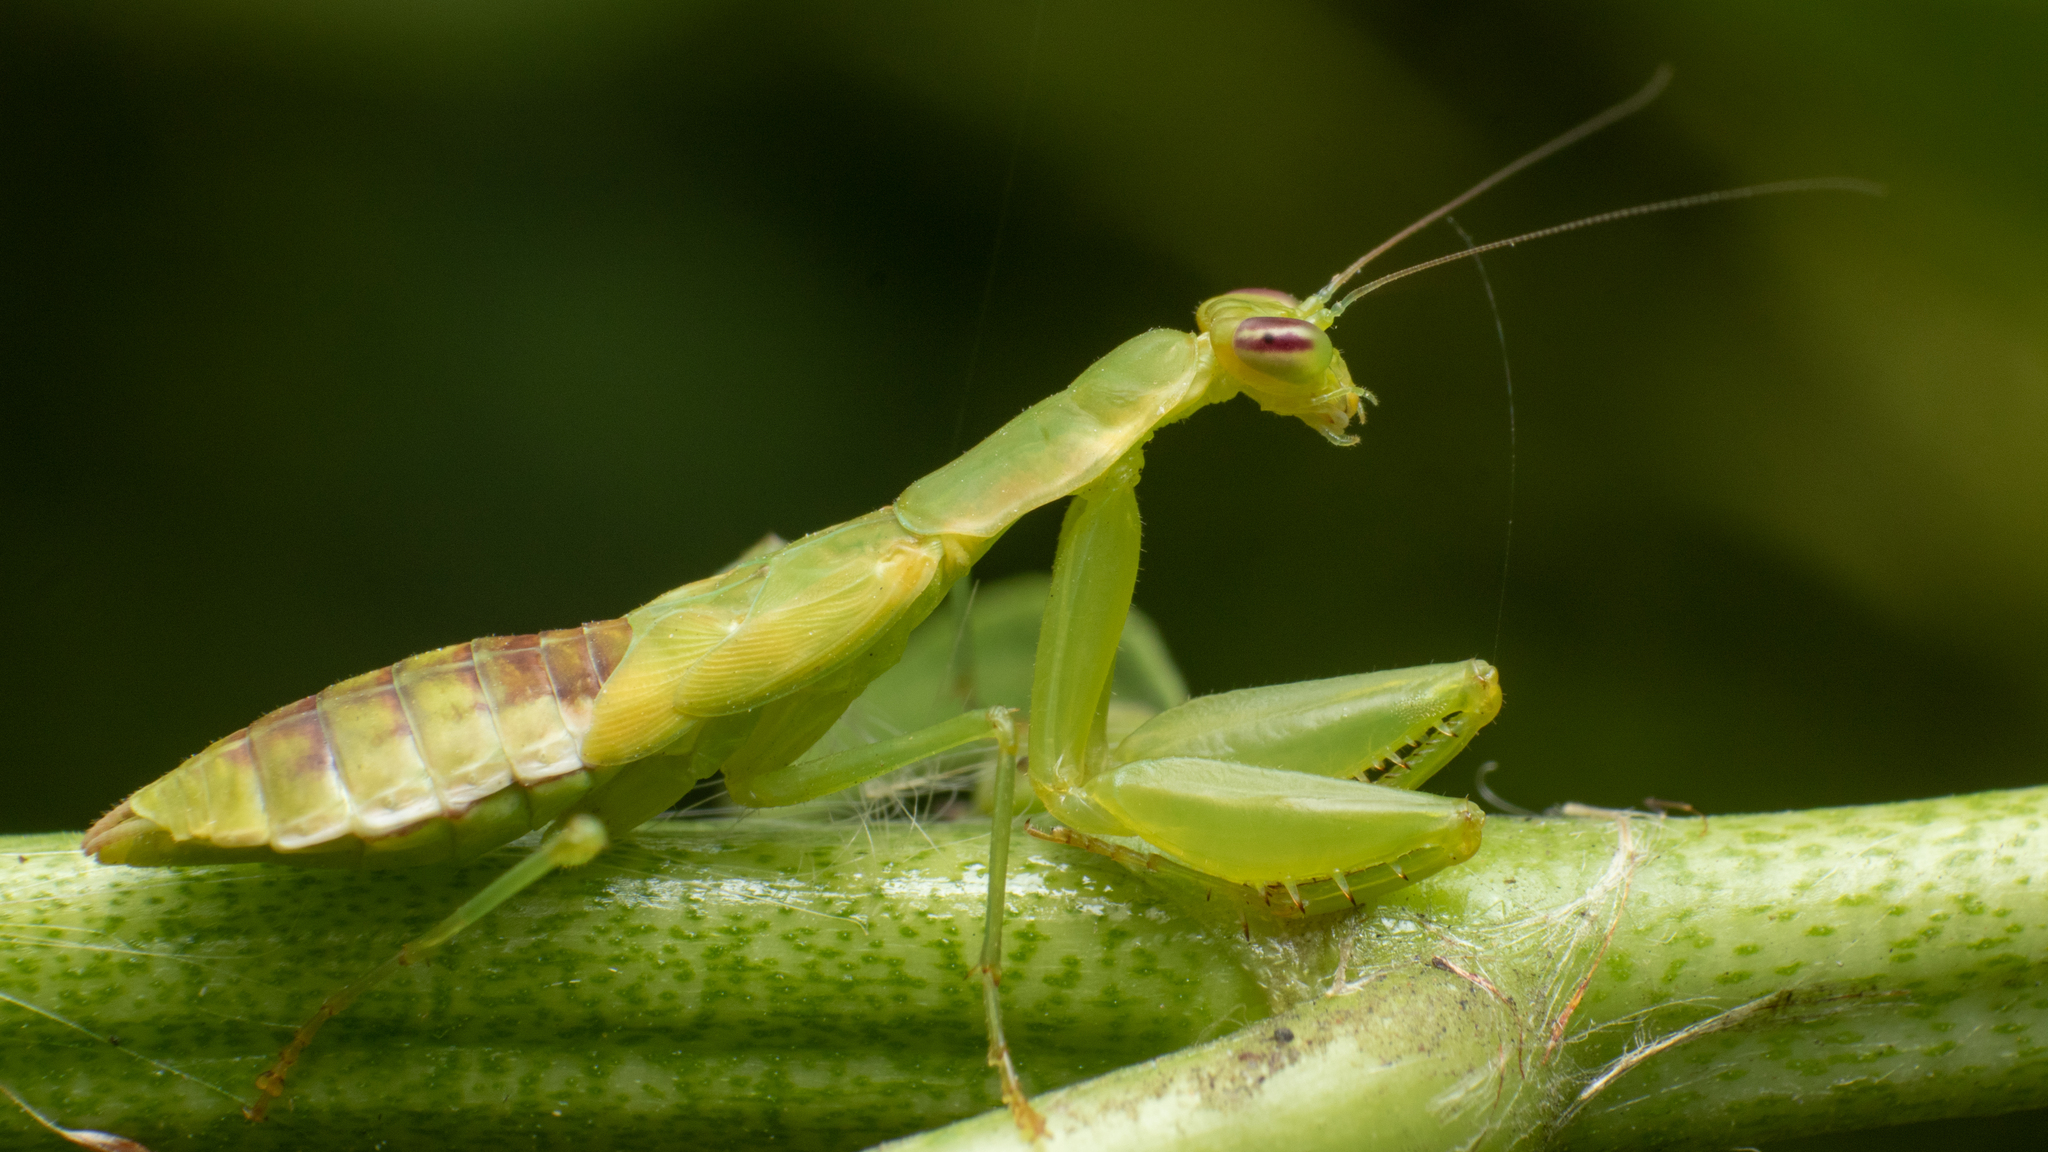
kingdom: Animalia
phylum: Arthropoda
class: Insecta
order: Mantodea
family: Hymenopodidae
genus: Odontomantis
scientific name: Odontomantis planiceps
